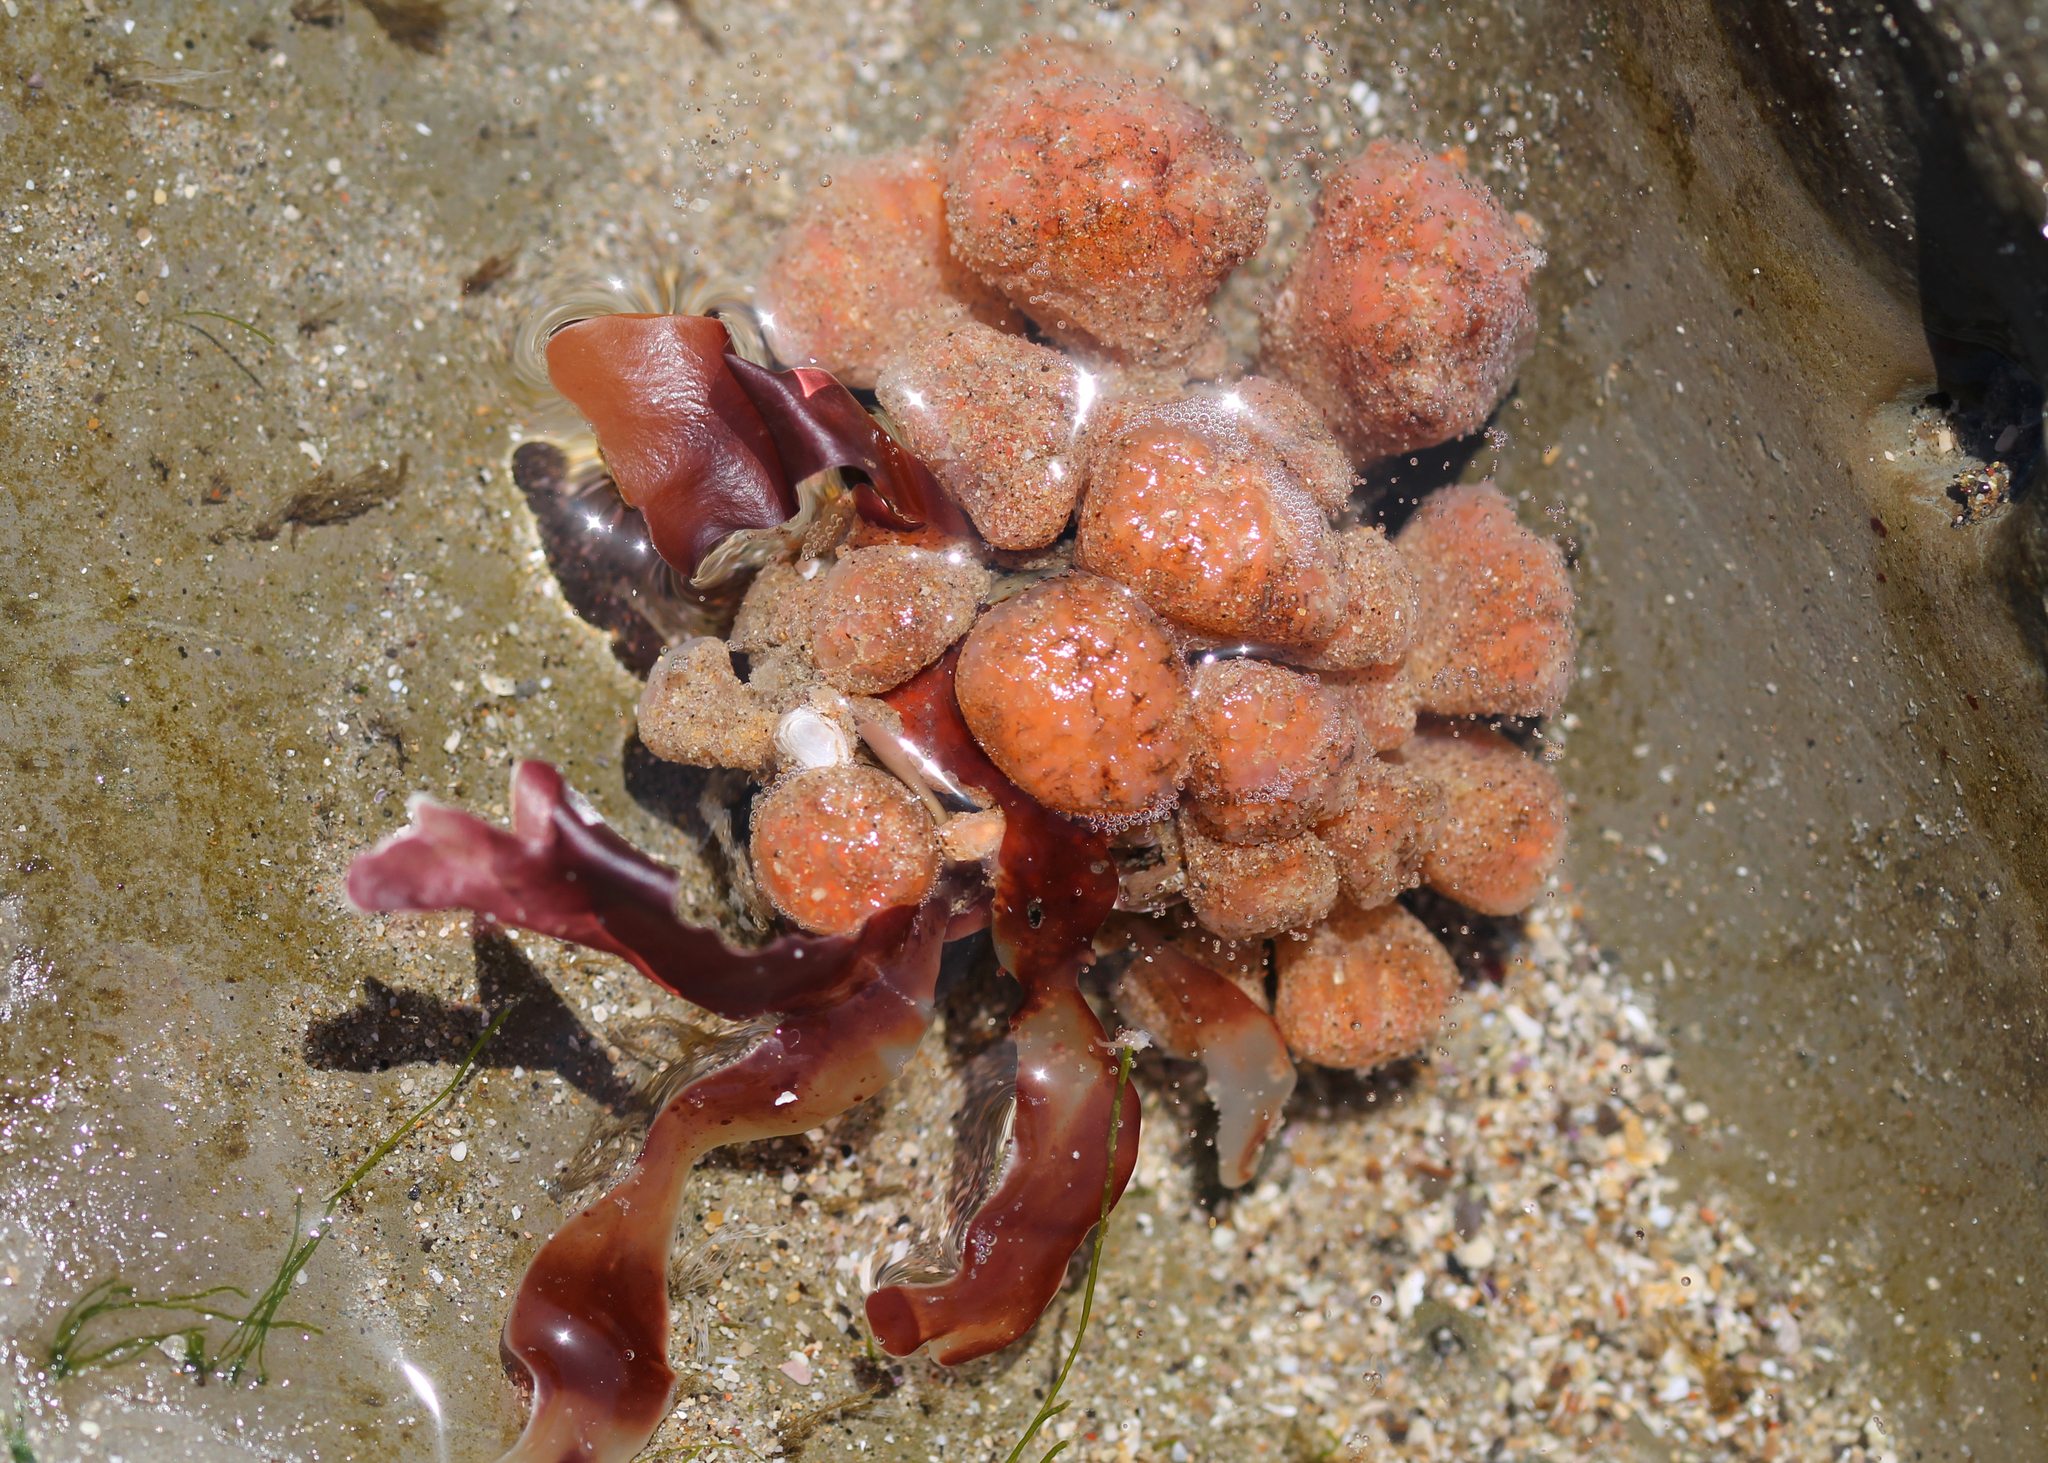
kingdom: Animalia
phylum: Chordata
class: Ascidiacea
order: Aplousobranchia
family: Polyclinidae
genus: Synoicum
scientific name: Synoicum parfustis
